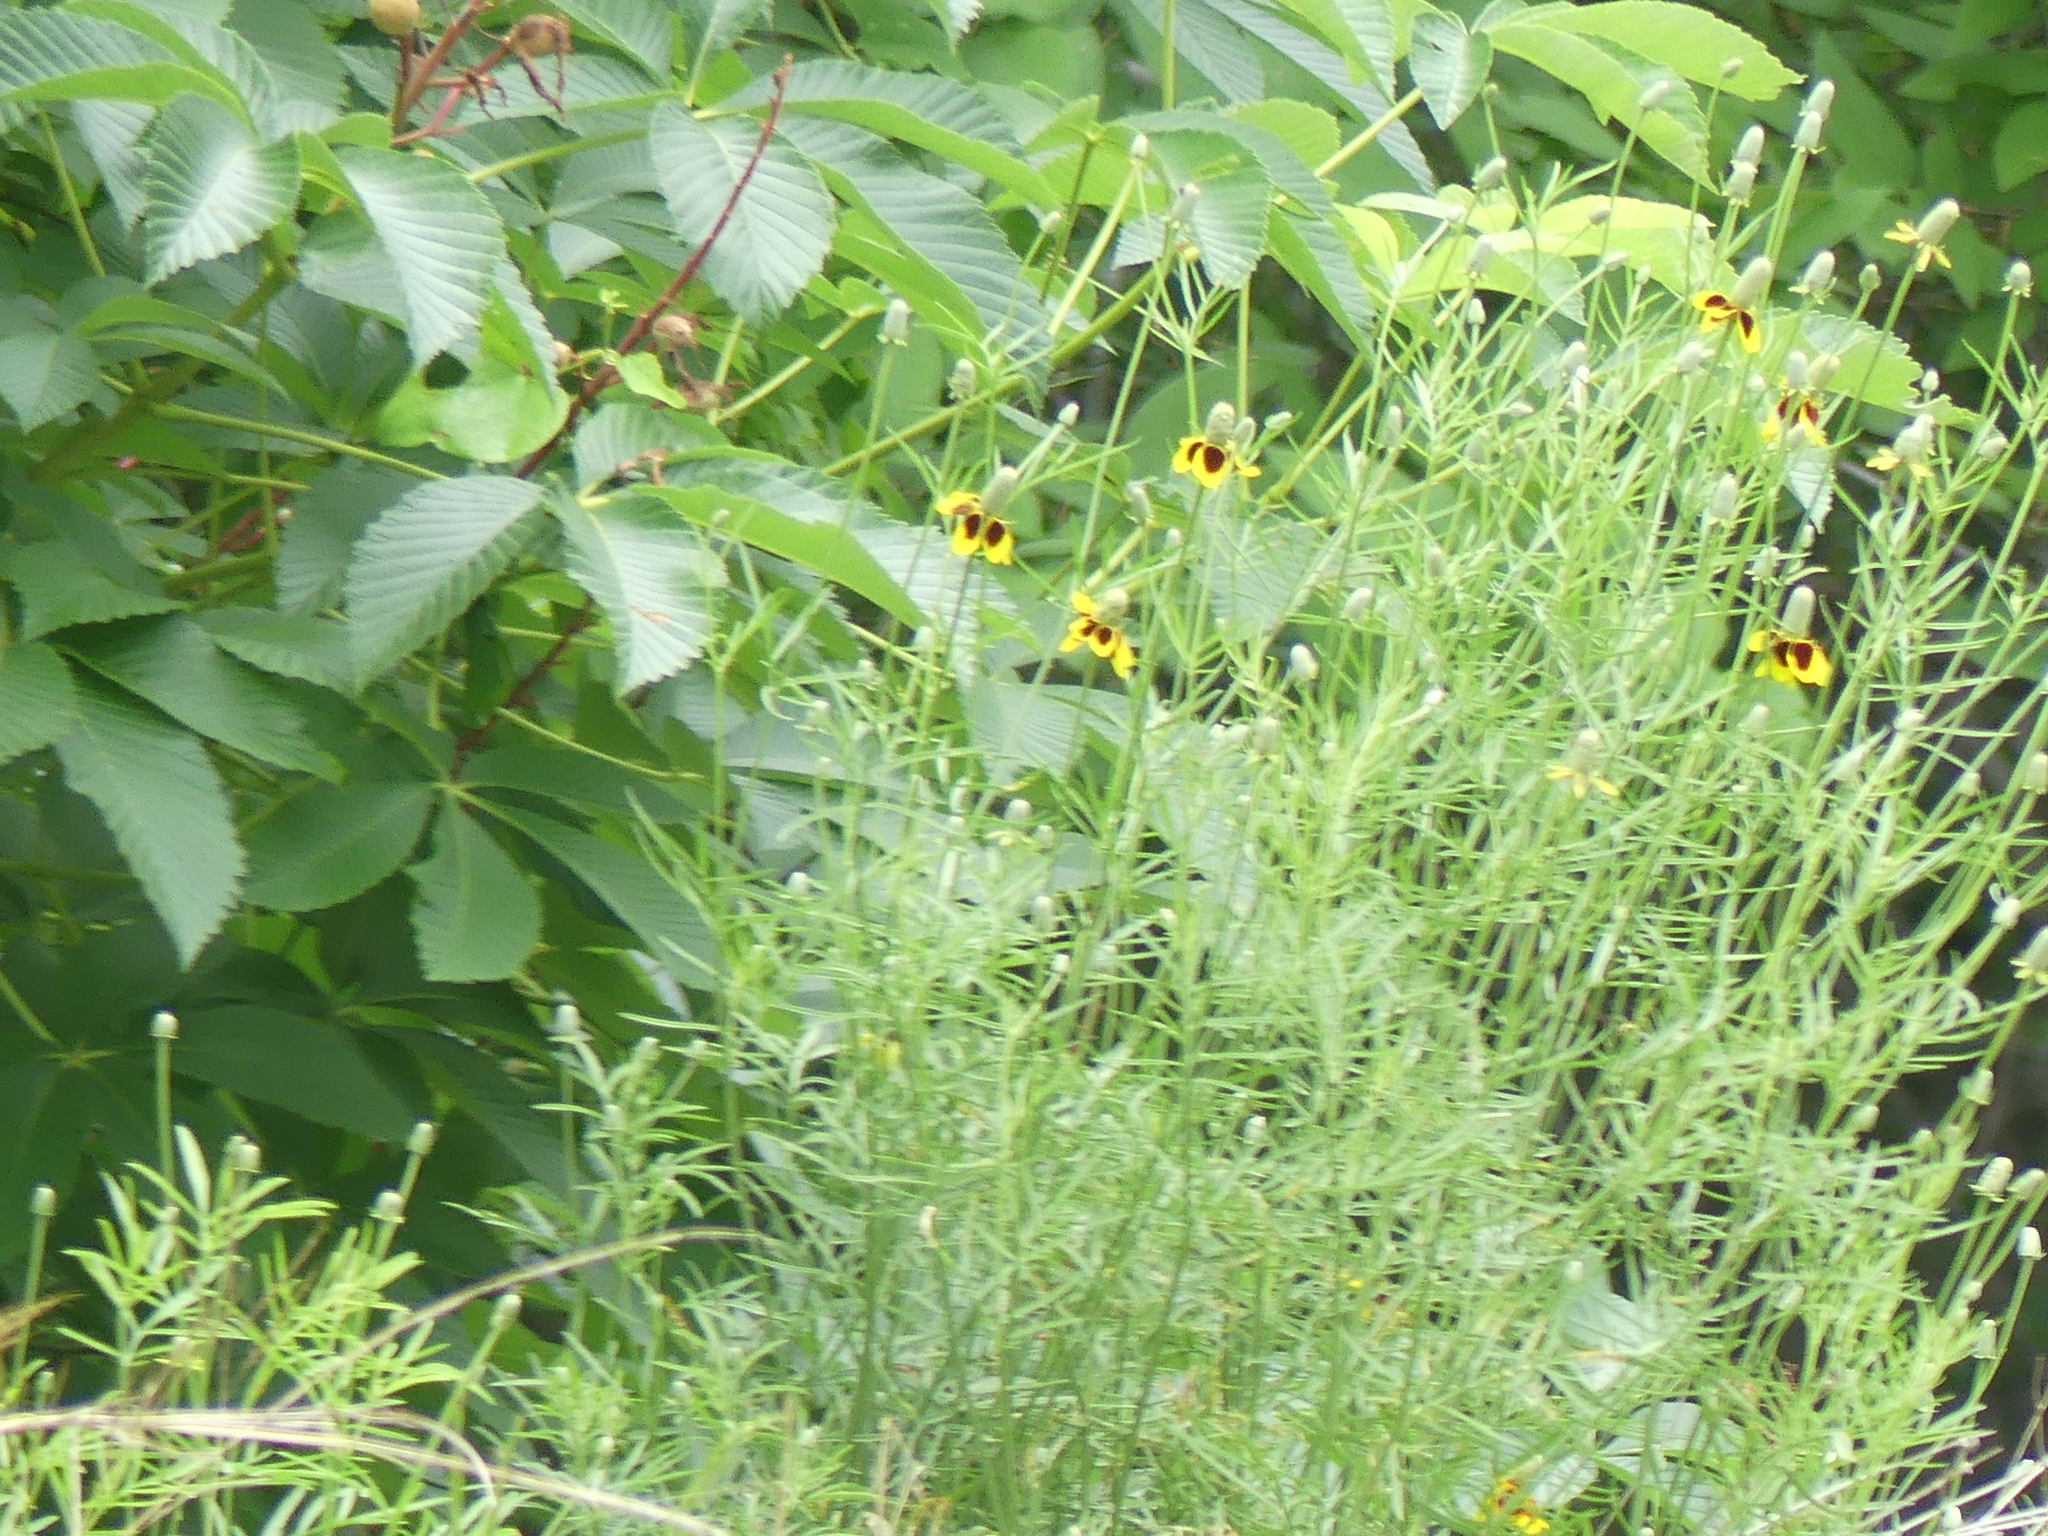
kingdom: Plantae
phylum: Tracheophyta
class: Magnoliopsida
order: Asterales
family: Asteraceae
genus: Ratibida
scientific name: Ratibida columnifera
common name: Prairie coneflower
